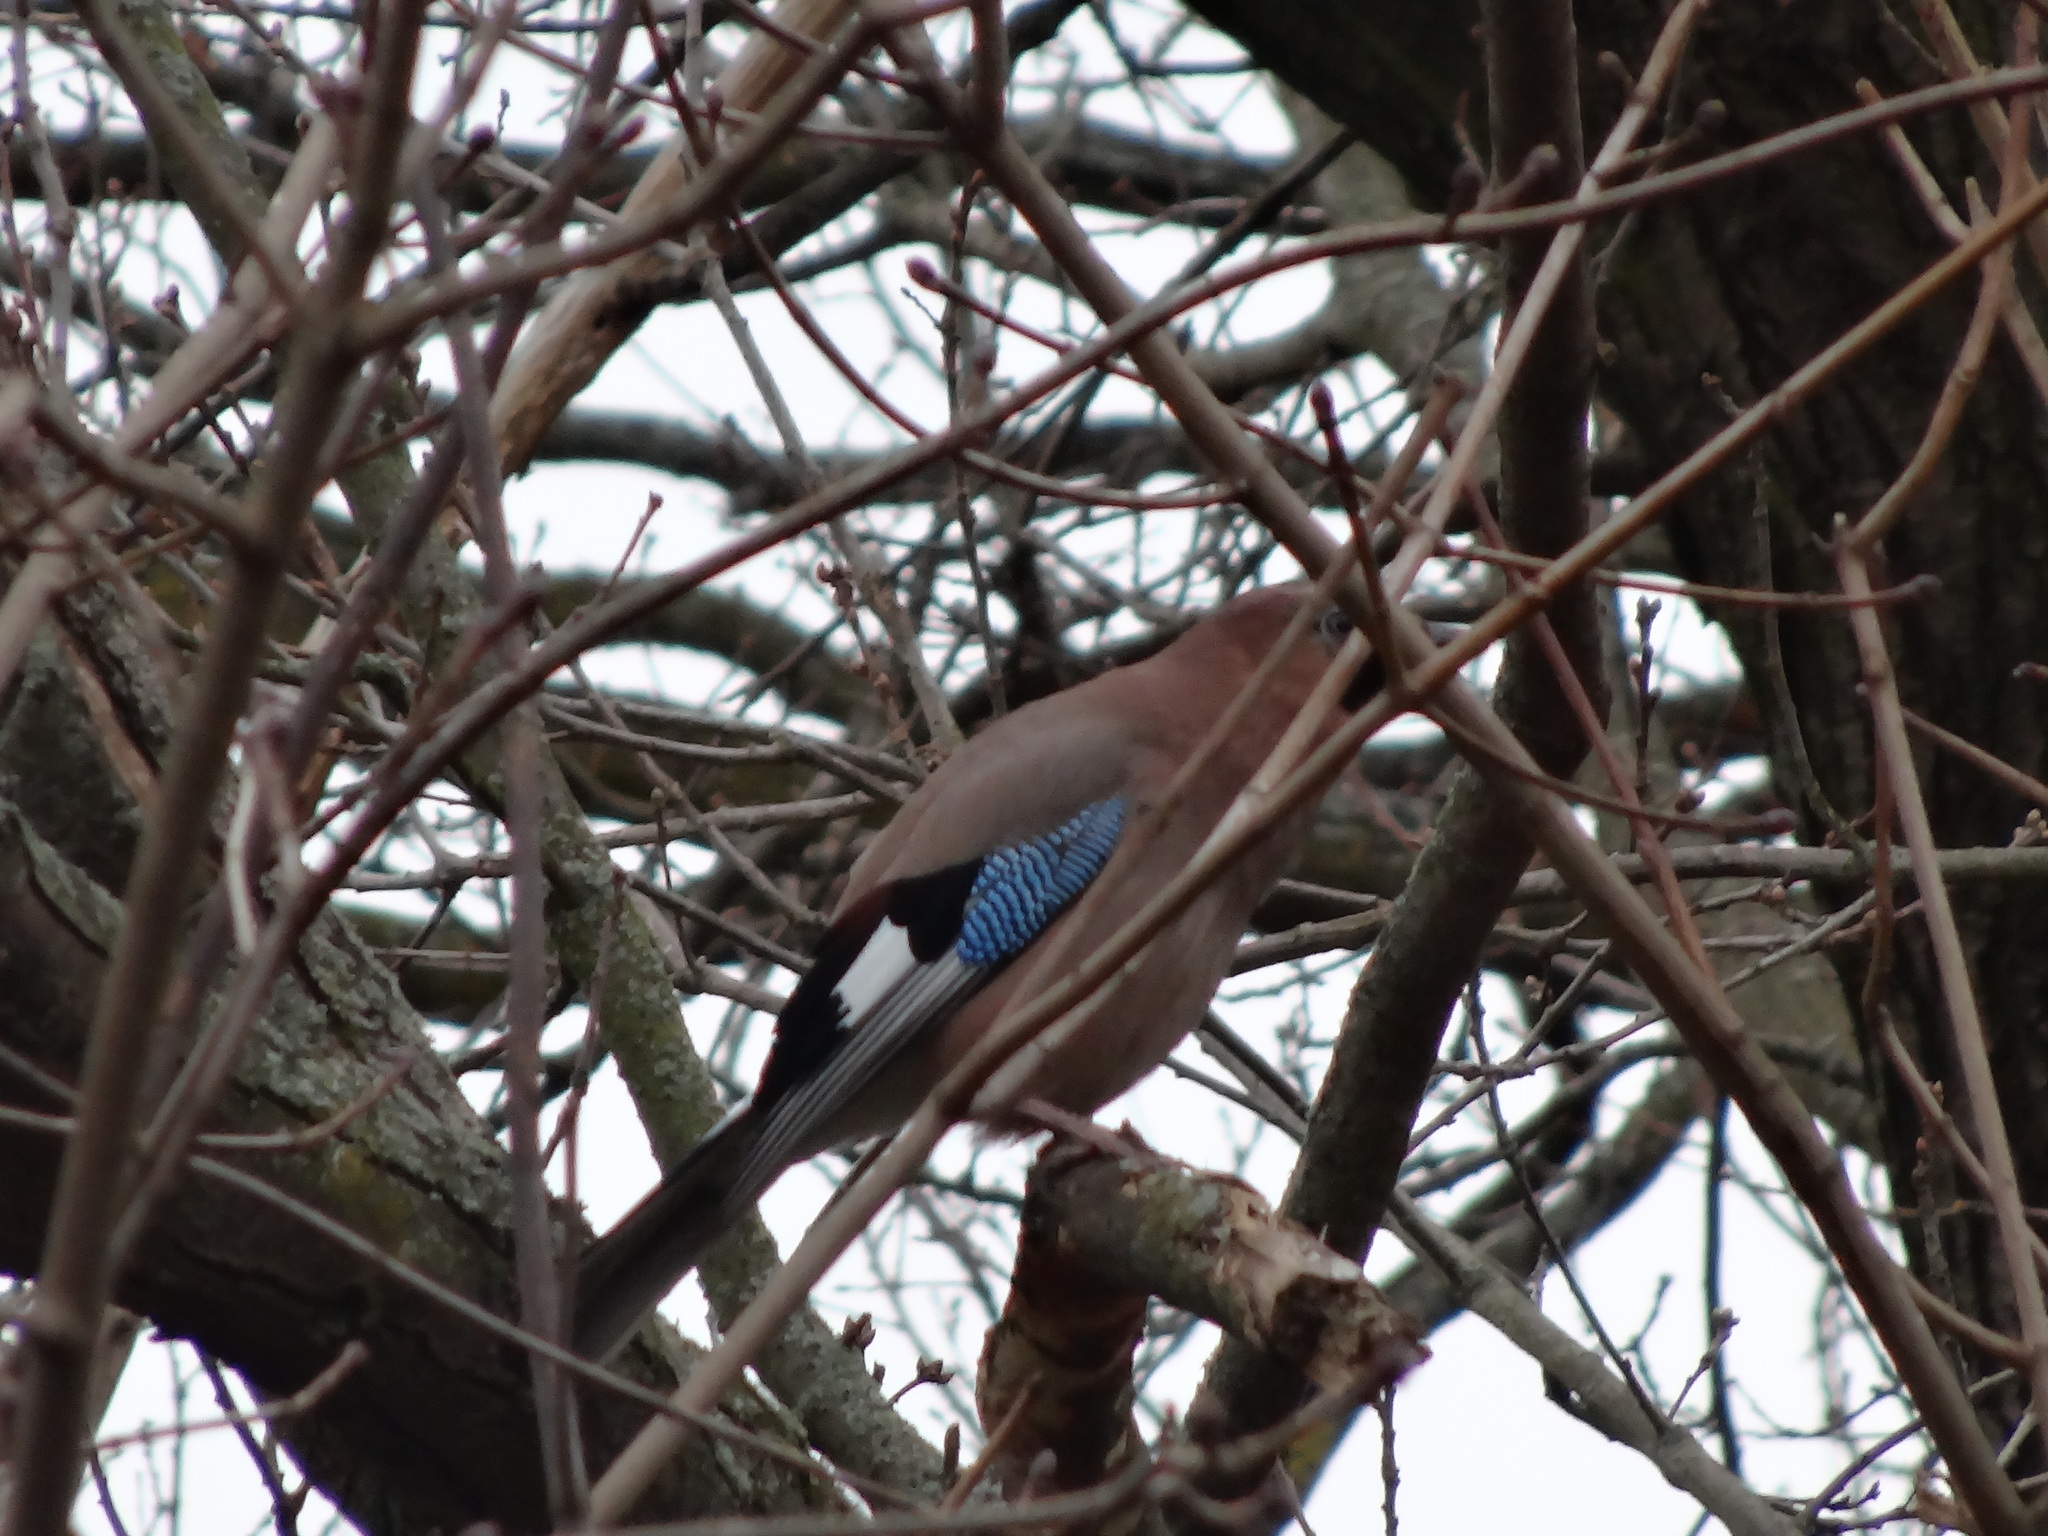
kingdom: Animalia
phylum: Chordata
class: Aves
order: Passeriformes
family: Corvidae
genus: Garrulus
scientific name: Garrulus glandarius
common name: Eurasian jay
